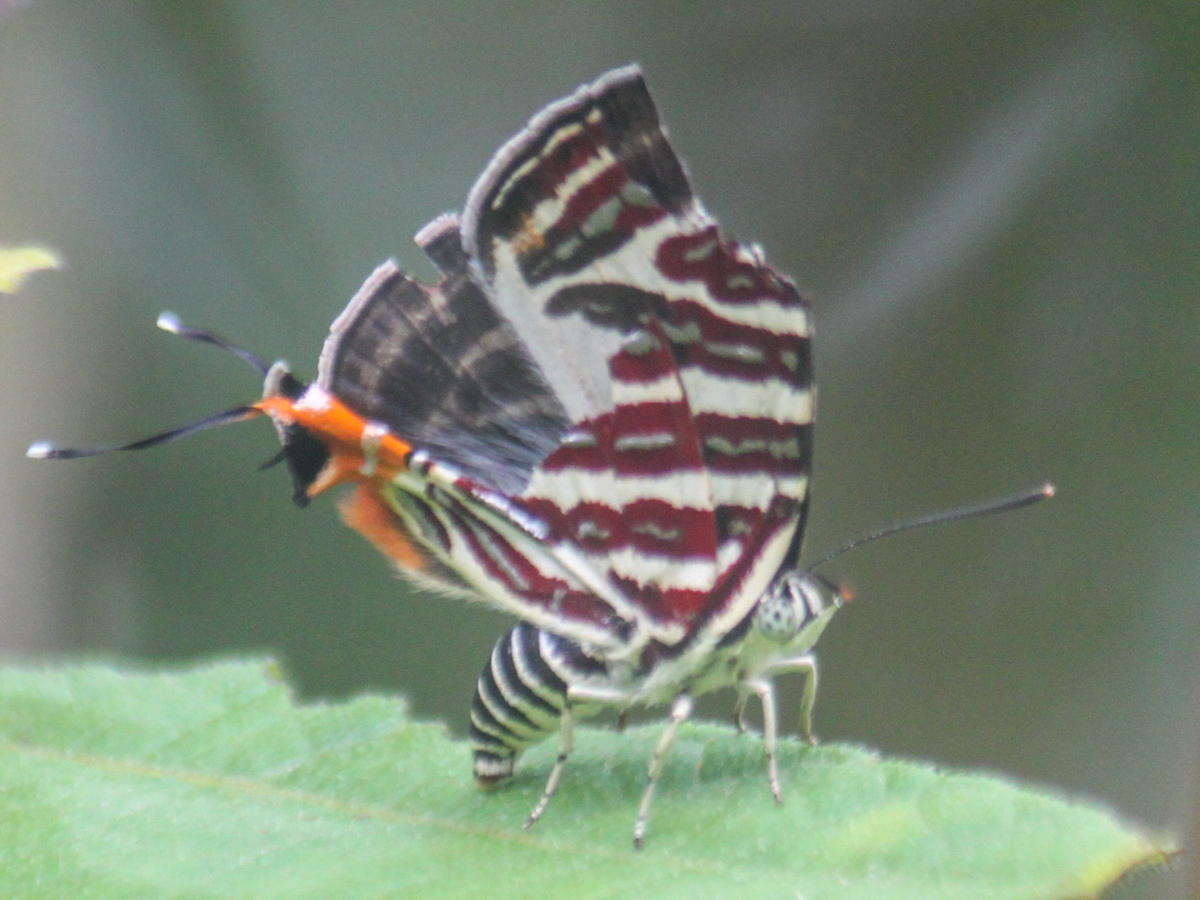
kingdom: Animalia
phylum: Arthropoda
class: Insecta
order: Lepidoptera
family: Lycaenidae
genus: Cigaritis
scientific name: Cigaritis lohita
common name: Long-banded silverline
